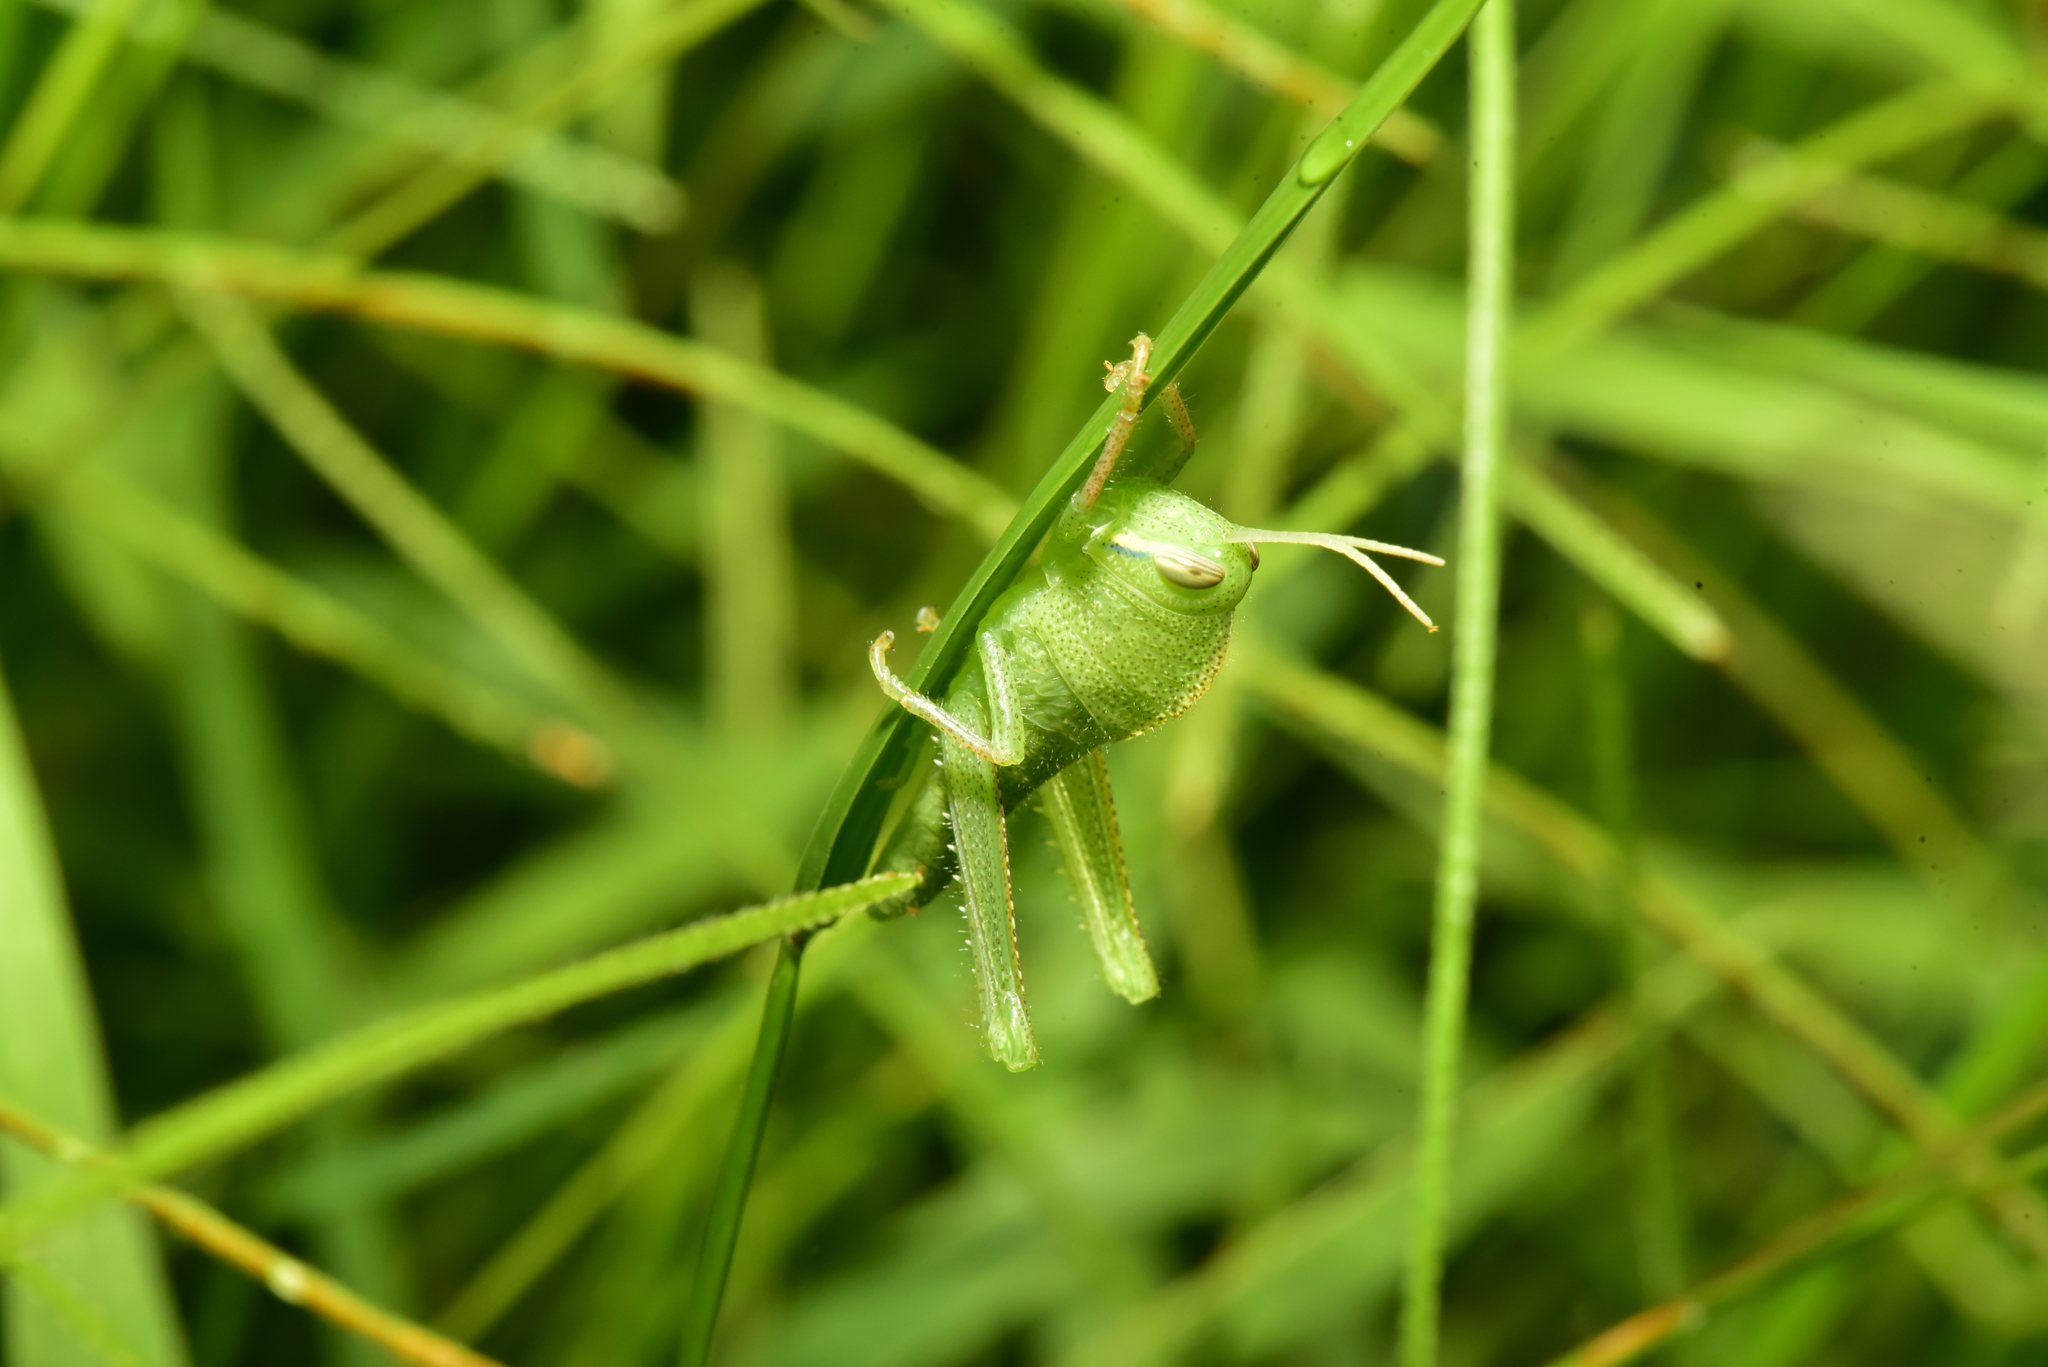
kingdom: Animalia
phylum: Arthropoda
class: Insecta
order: Orthoptera
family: Acrididae
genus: Chondracris
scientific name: Chondracris rosea
